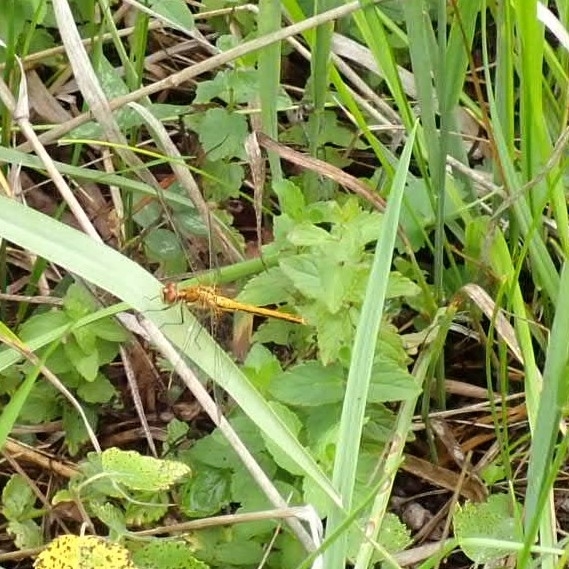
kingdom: Animalia
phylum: Arthropoda
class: Insecta
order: Odonata
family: Libellulidae
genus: Sympetrum
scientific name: Sympetrum flaveolum
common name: Yellow-winged darter
